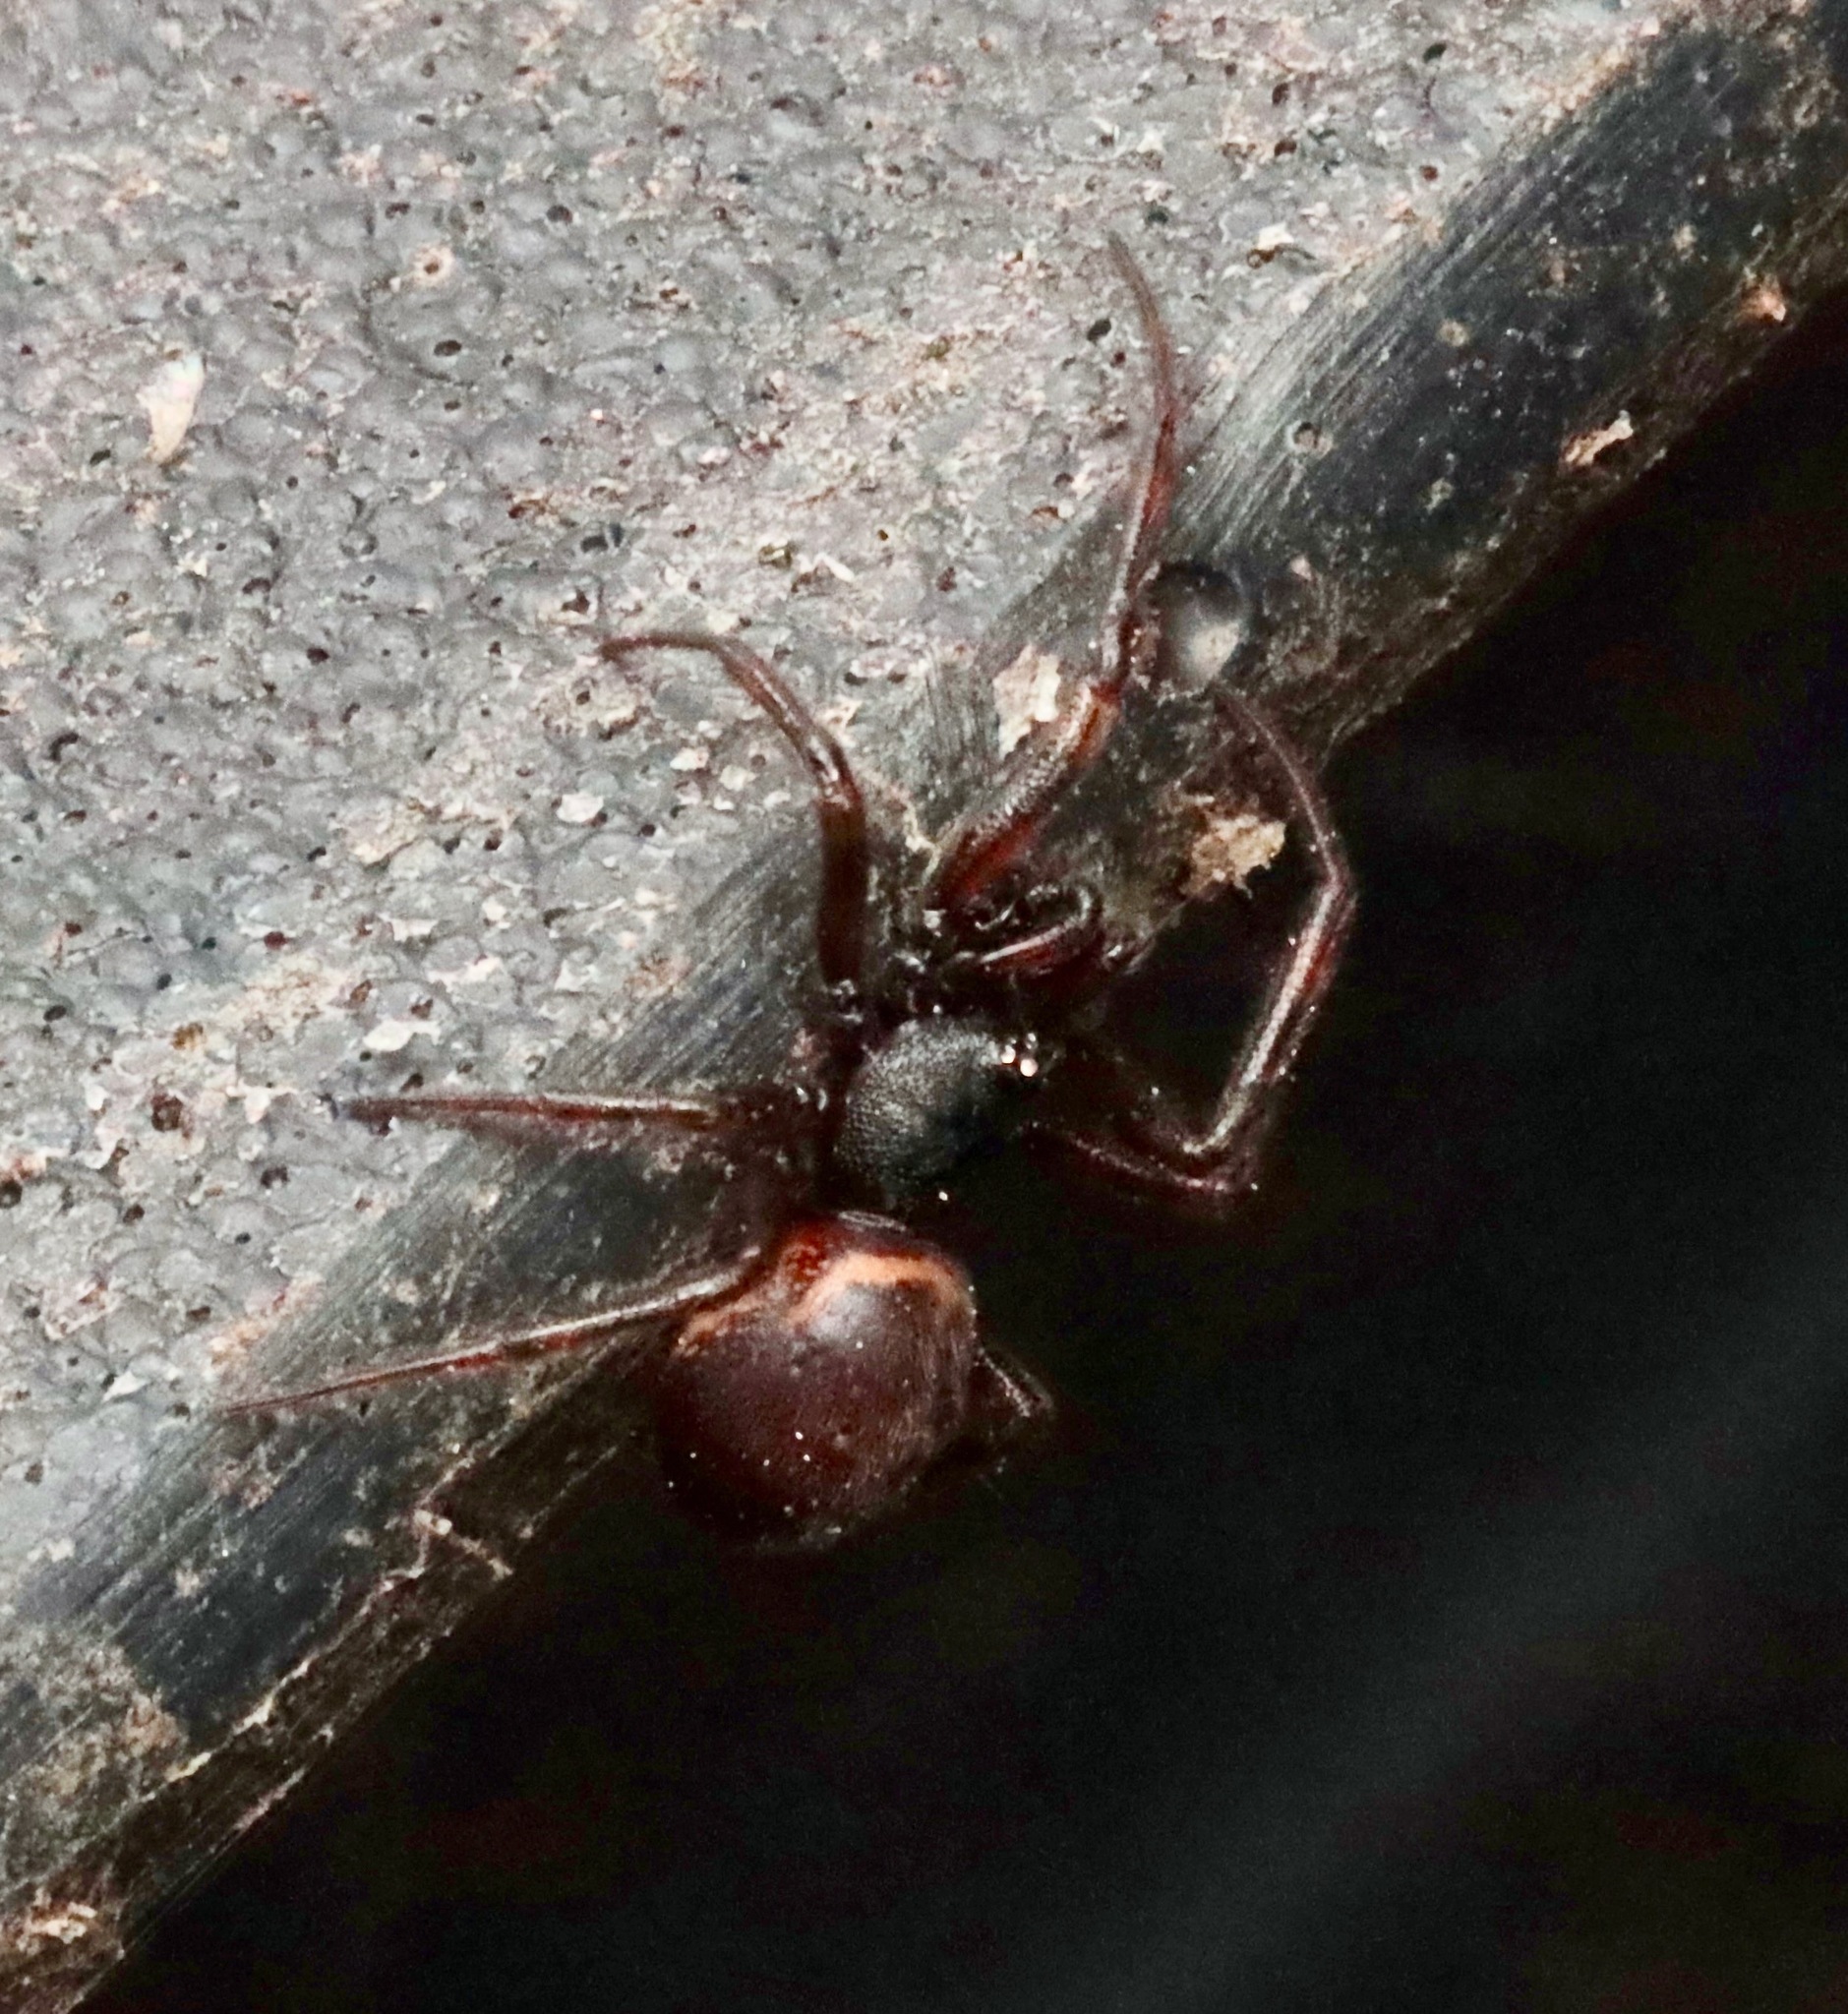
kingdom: Animalia
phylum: Arthropoda
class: Arachnida
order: Araneae
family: Theridiidae
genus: Steatoda
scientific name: Steatoda borealis
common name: Boreal combfoot
